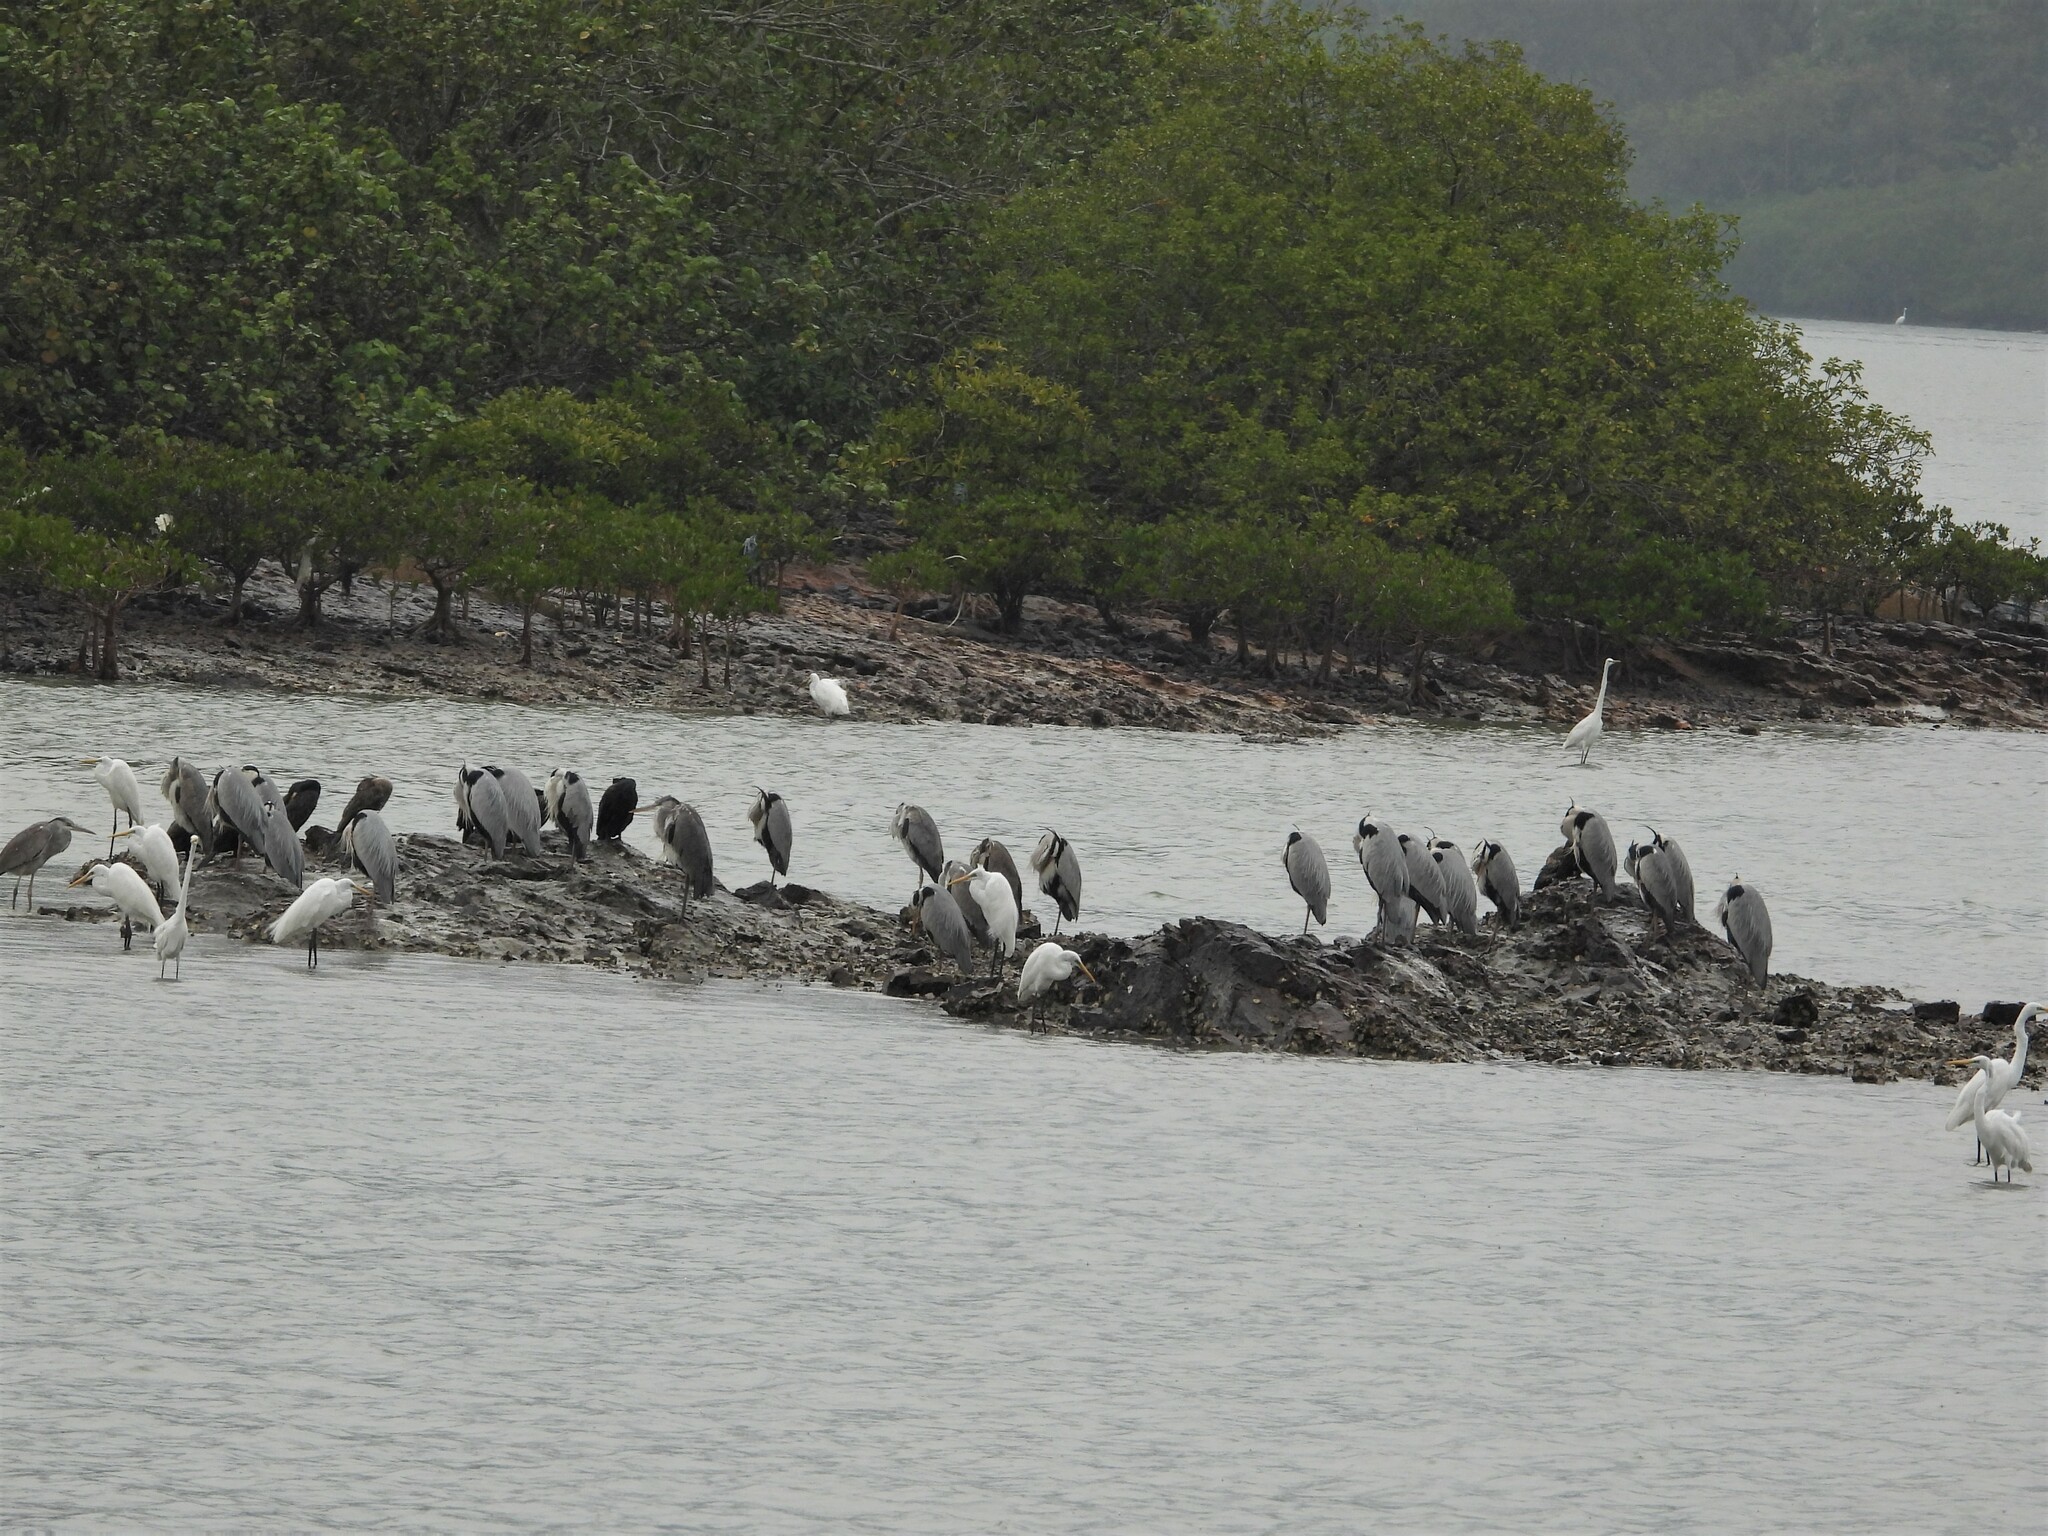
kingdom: Animalia
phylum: Chordata
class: Aves
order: Pelecaniformes
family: Ardeidae
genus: Ardea
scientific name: Ardea cinerea
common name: Grey heron
